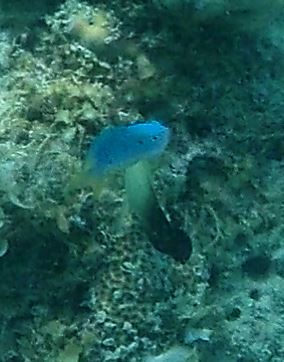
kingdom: Animalia
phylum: Chordata
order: Perciformes
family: Pomacentridae
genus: Pomacentrus
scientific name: Pomacentrus pavo
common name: Sapphire damsel
